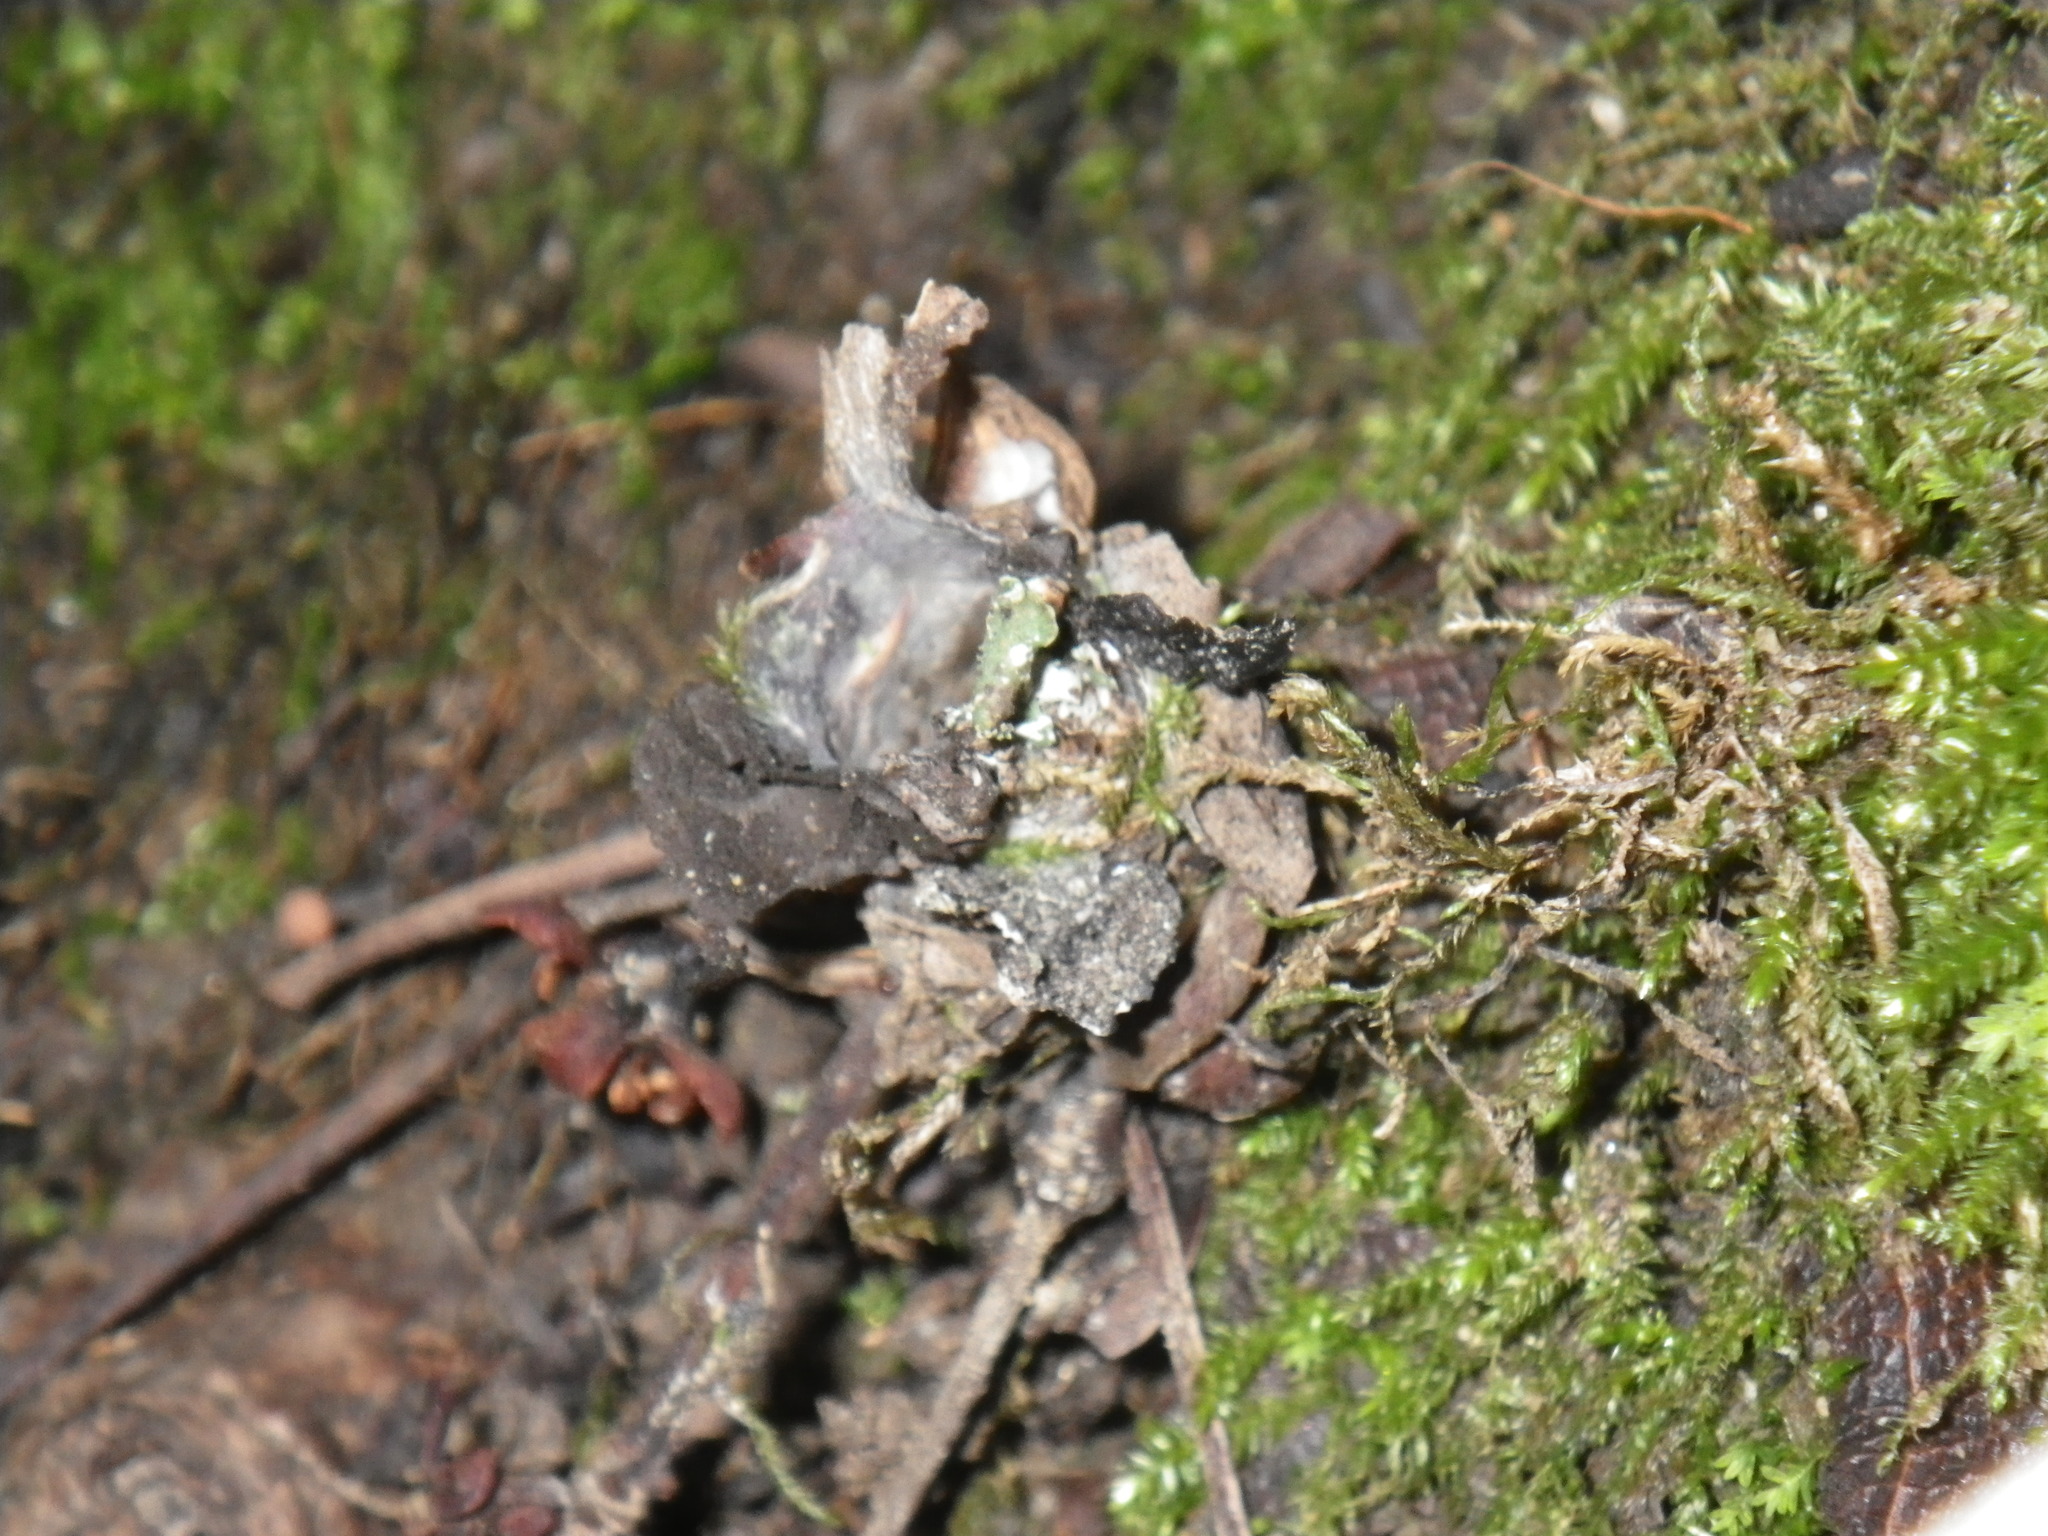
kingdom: Animalia
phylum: Arthropoda
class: Arachnida
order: Araneae
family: Antrodiaetidae
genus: Atypoides
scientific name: Atypoides riversi
